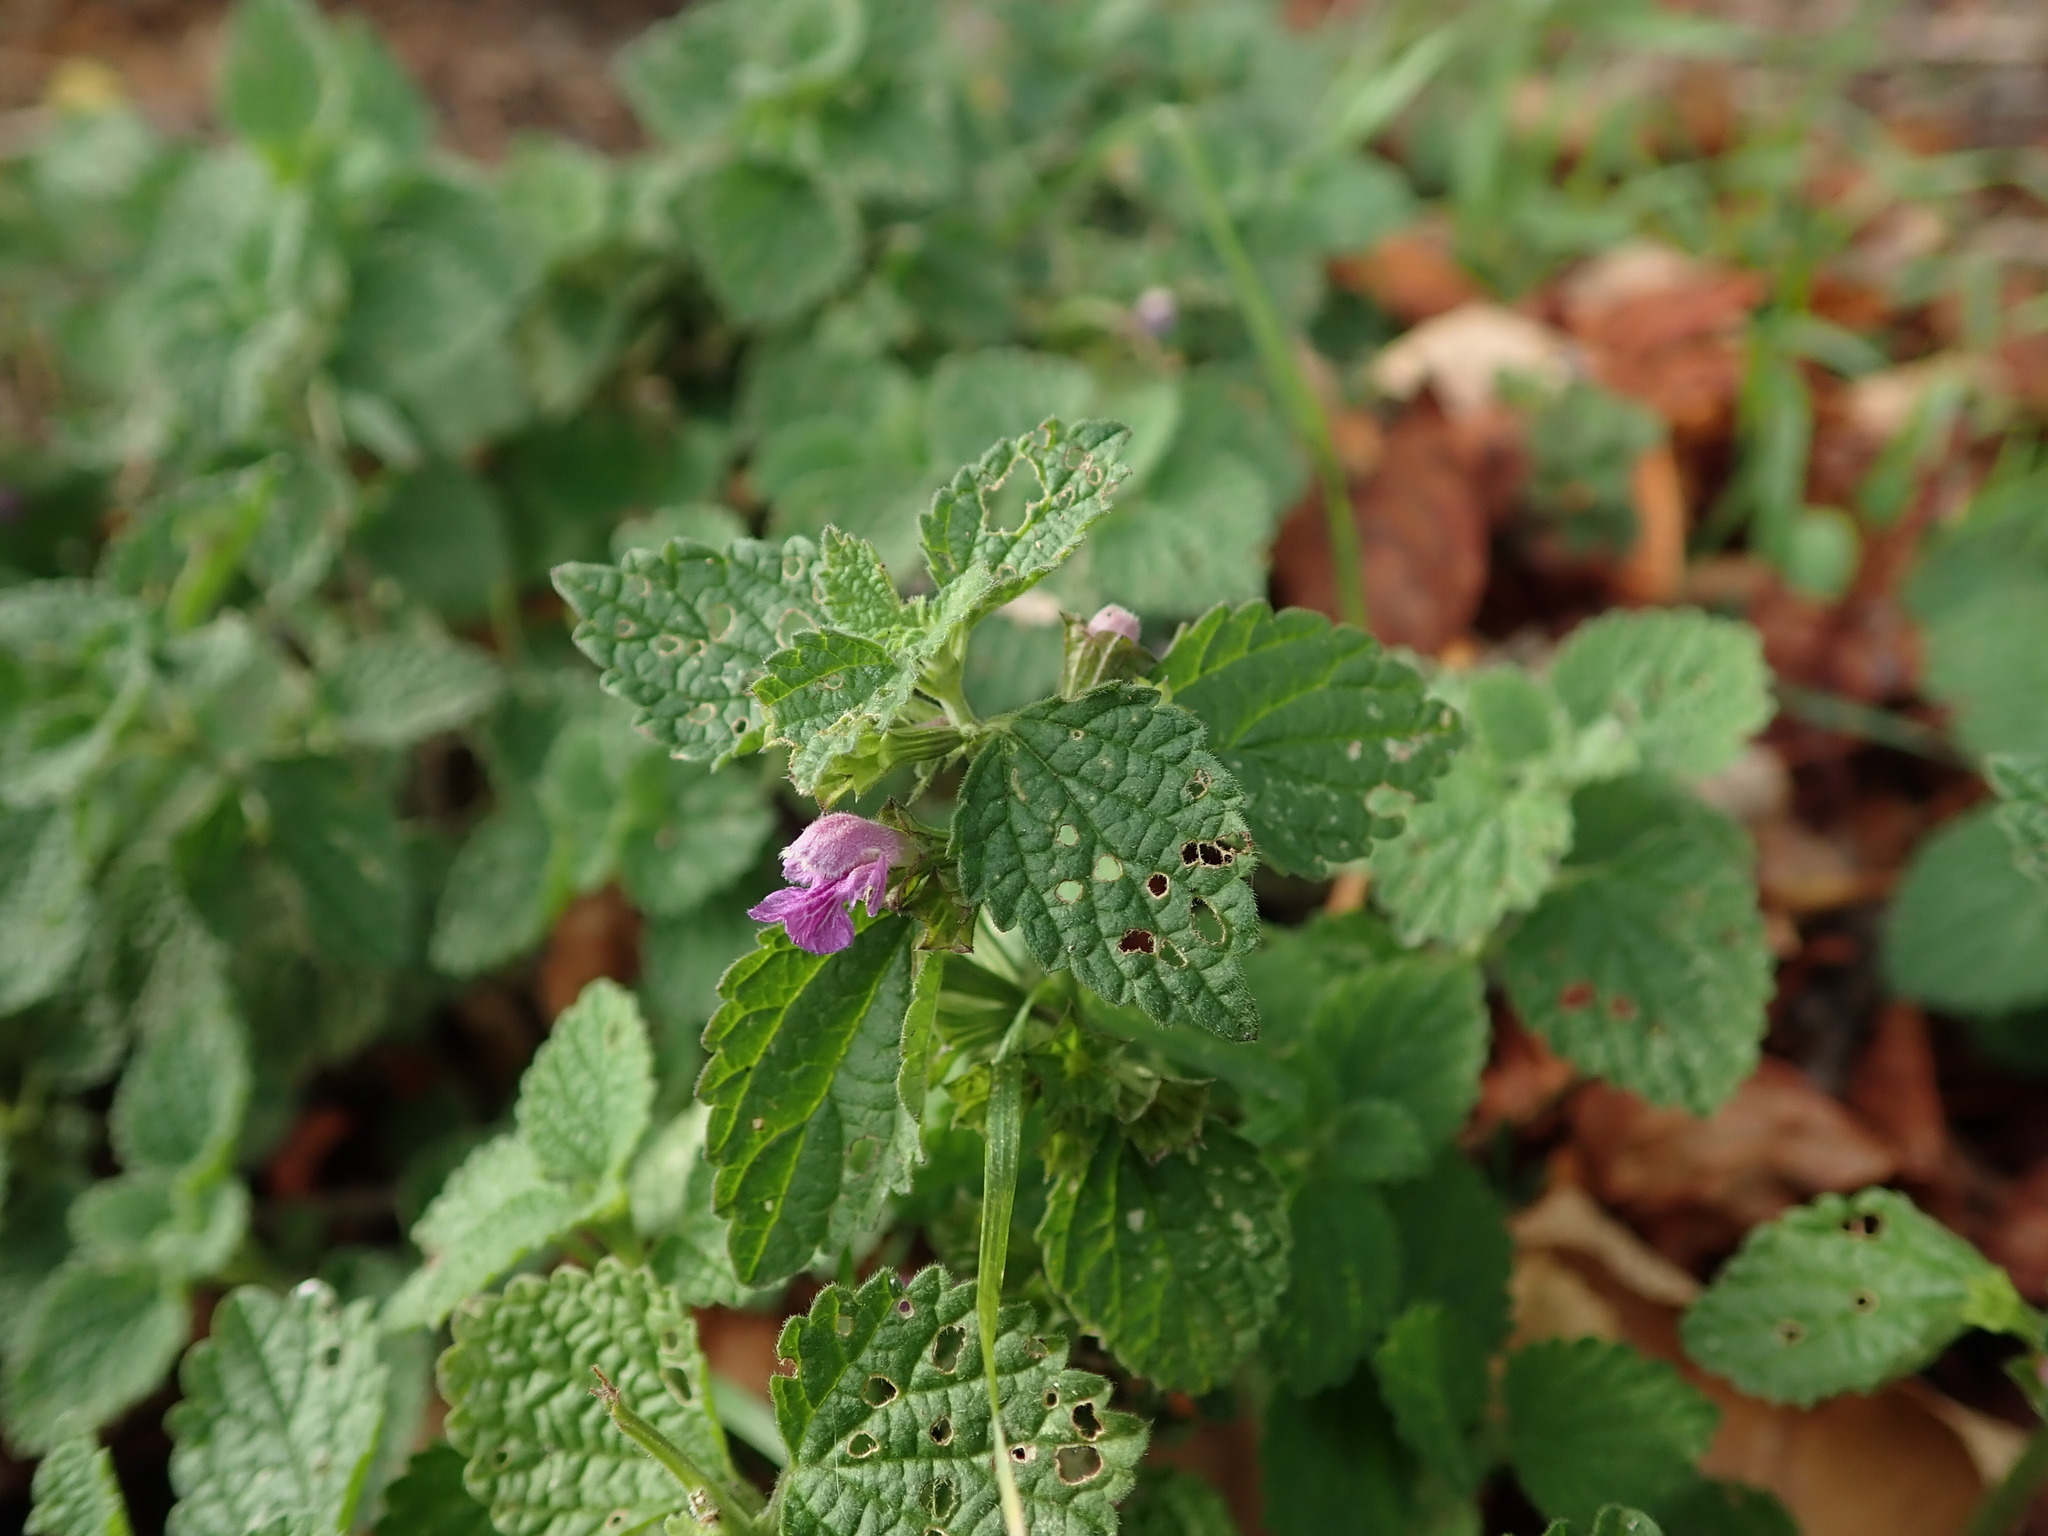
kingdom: Plantae
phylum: Tracheophyta
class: Magnoliopsida
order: Lamiales
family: Lamiaceae
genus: Ballota
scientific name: Ballota nigra
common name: Black horehound
